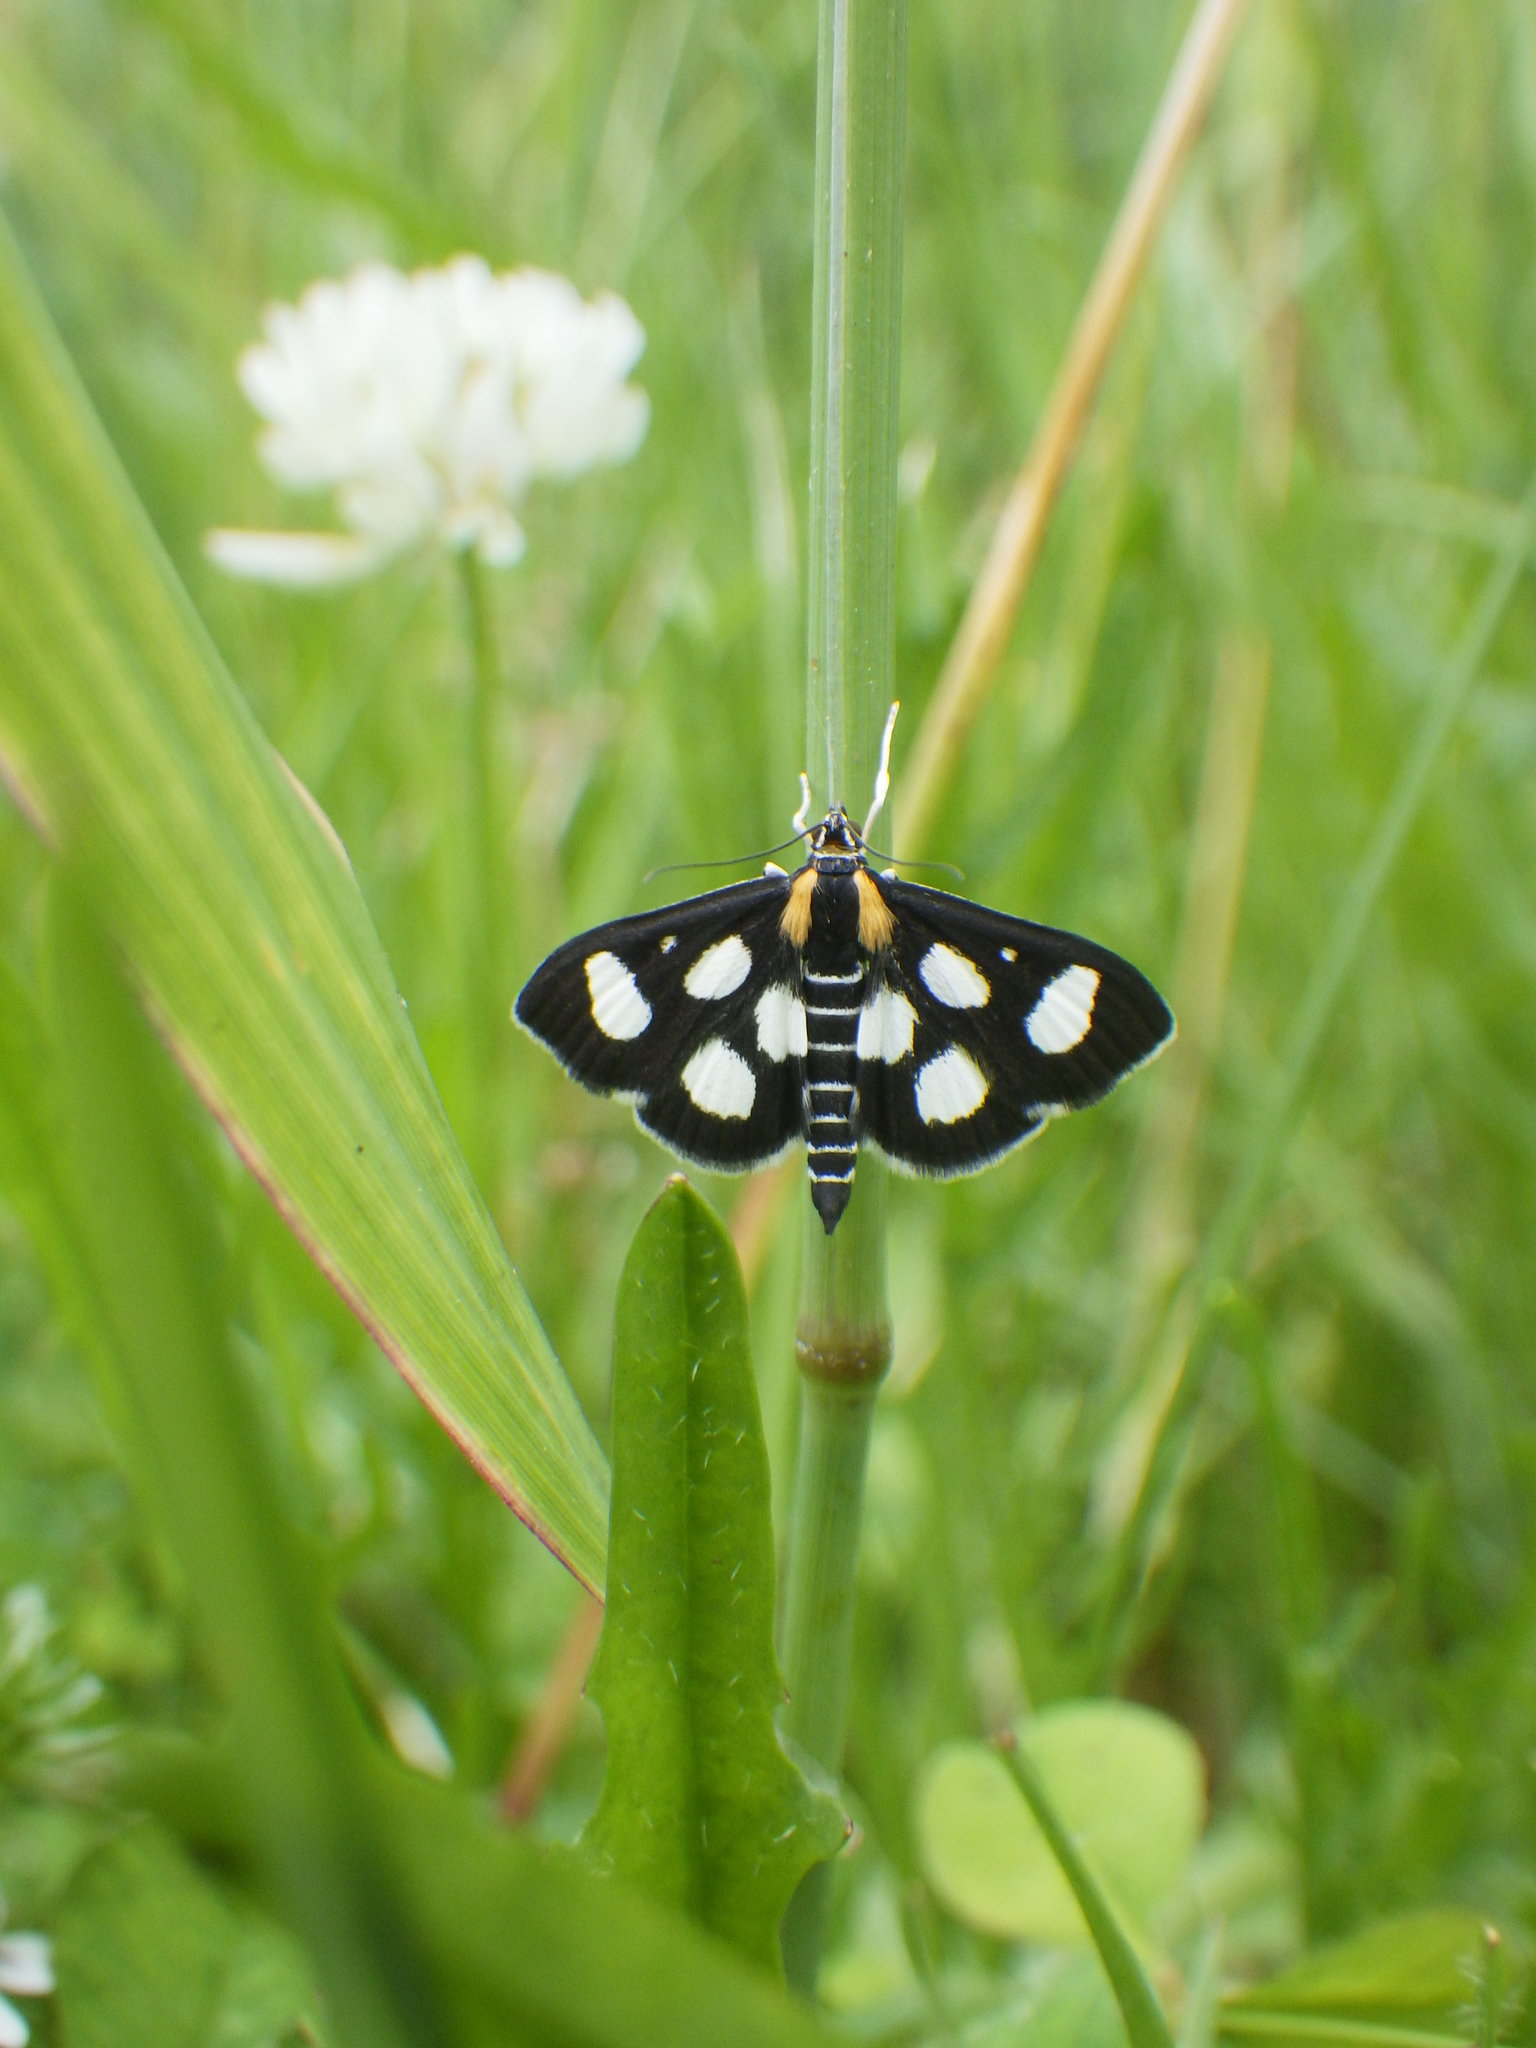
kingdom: Animalia
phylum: Arthropoda
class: Insecta
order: Lepidoptera
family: Crambidae
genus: Anania
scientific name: Anania funebris
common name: White-spotted sable moth
